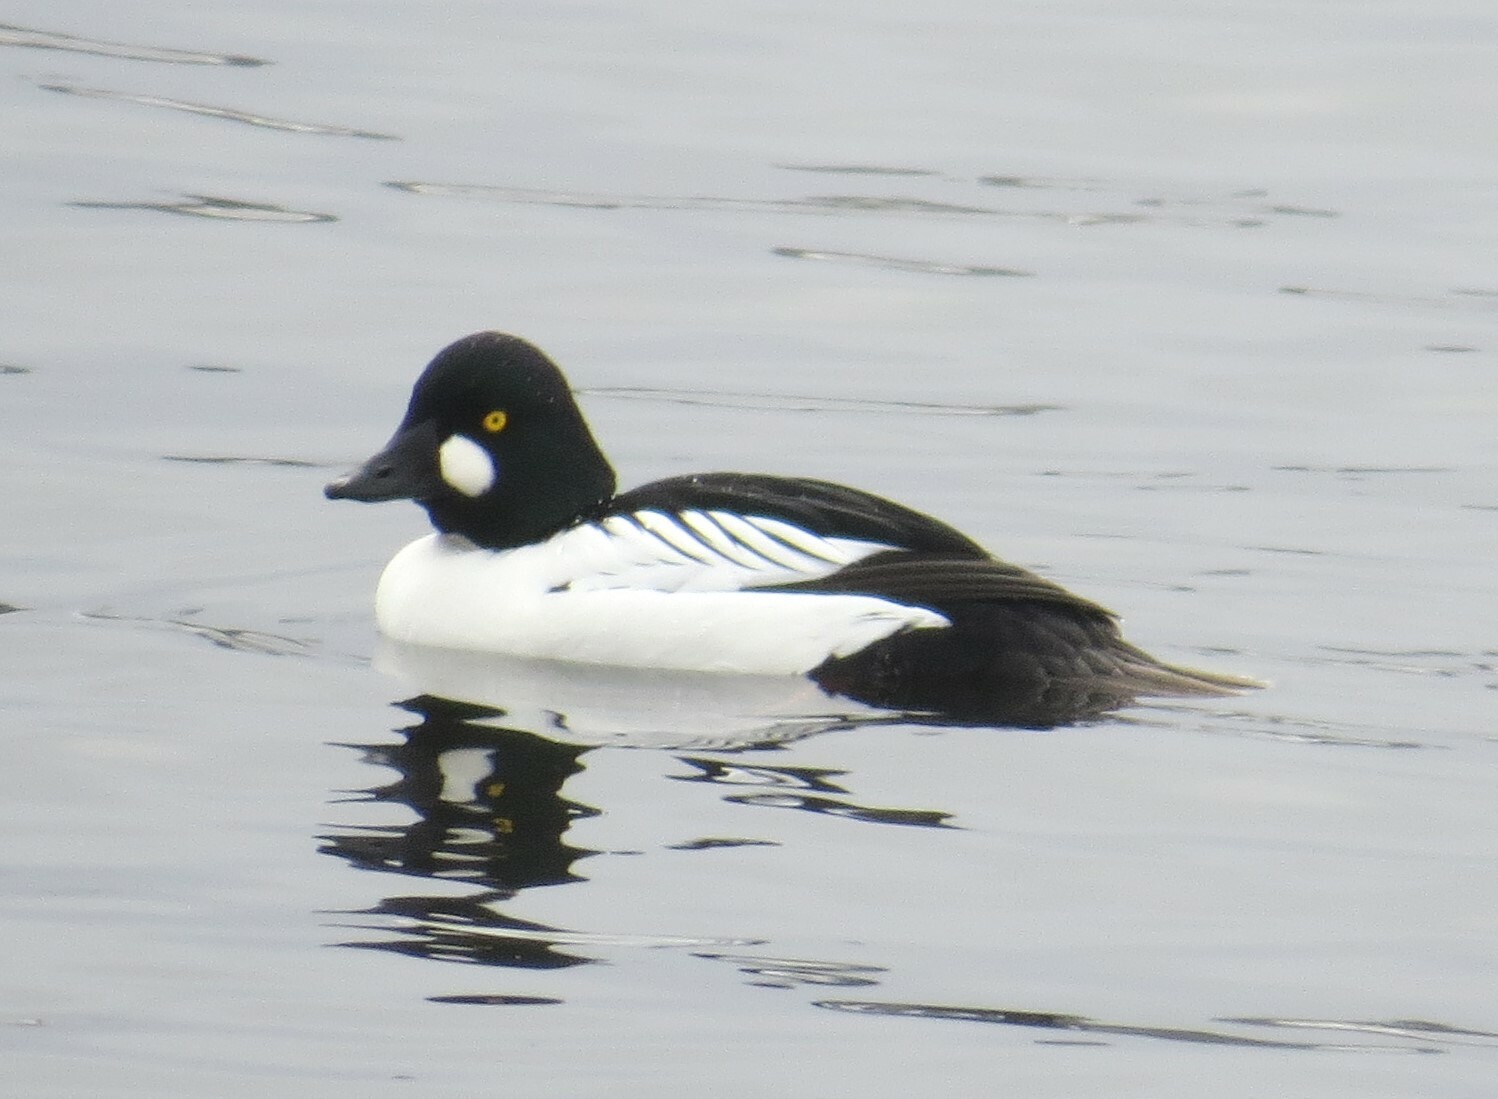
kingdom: Animalia
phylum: Chordata
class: Aves
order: Anseriformes
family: Anatidae
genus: Bucephala
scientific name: Bucephala clangula
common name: Common goldeneye
